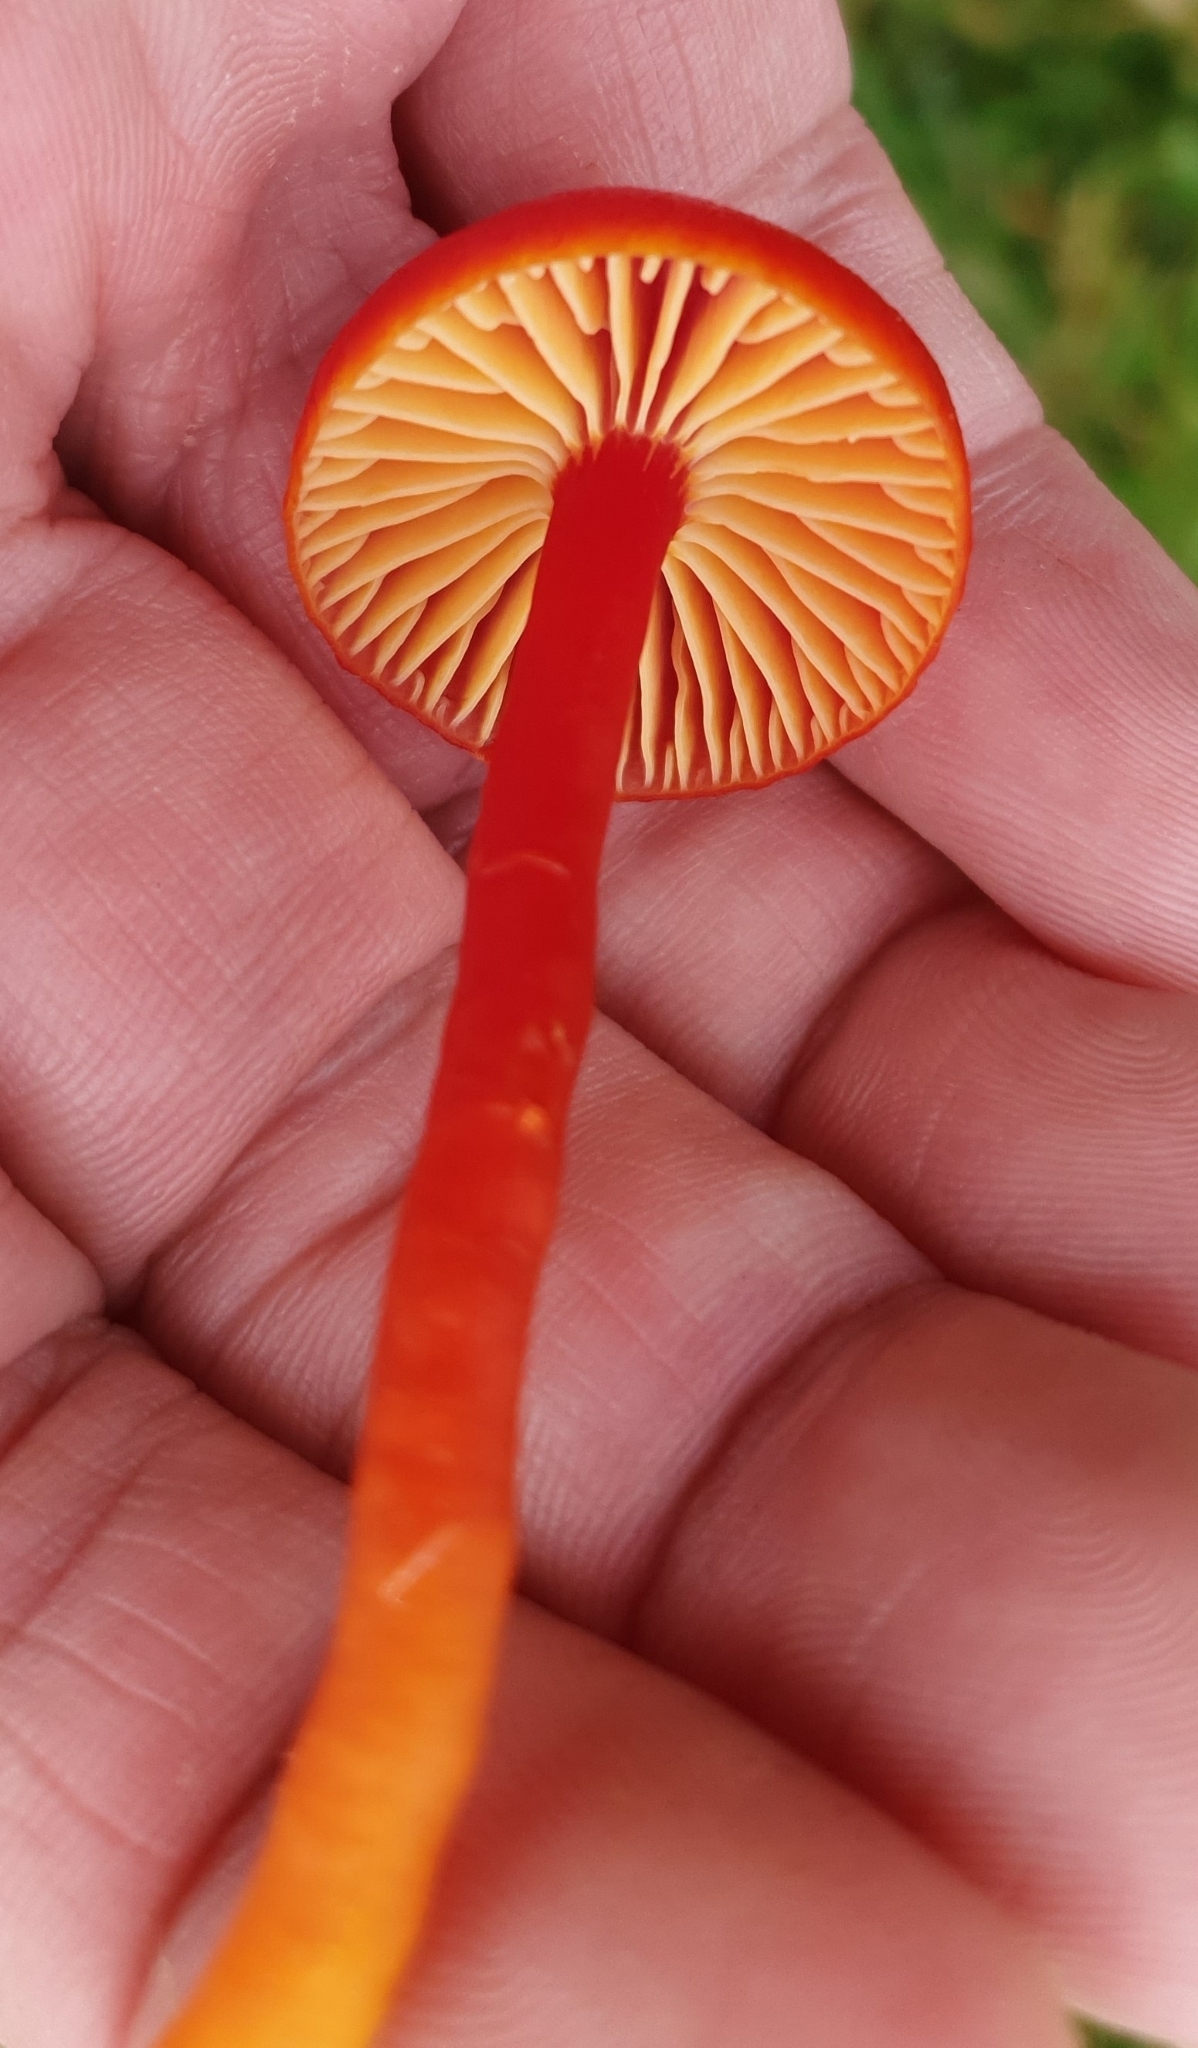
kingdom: Fungi
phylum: Basidiomycota
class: Agaricomycetes
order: Agaricales
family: Hygrophoraceae
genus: Hygrocybe
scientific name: Hygrocybe coccinea
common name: Scarlet hood
